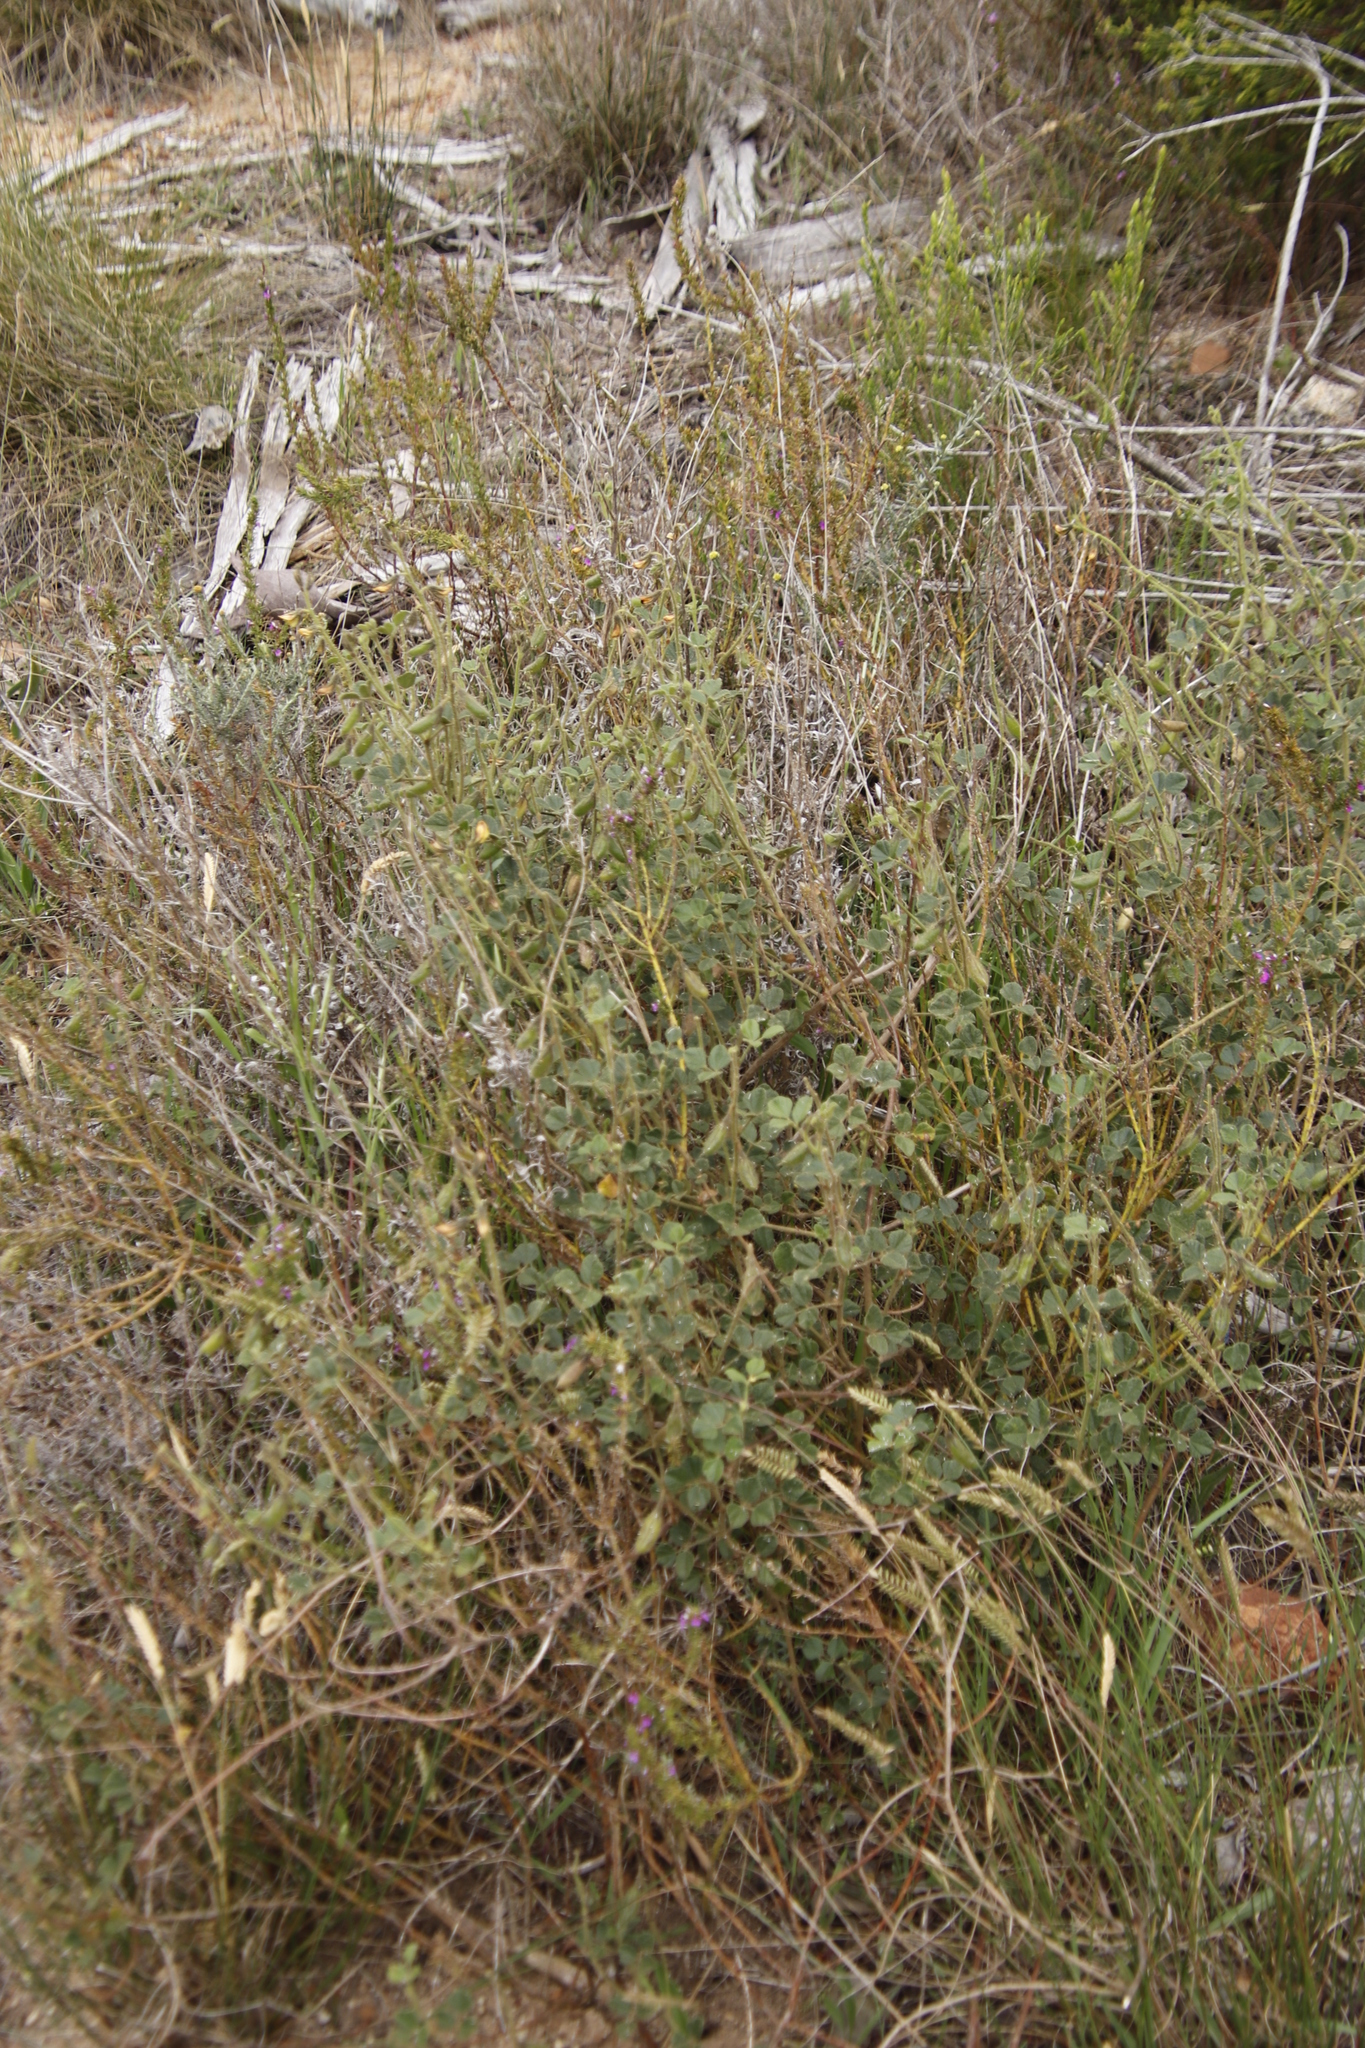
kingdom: Plantae
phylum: Tracheophyta
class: Magnoliopsida
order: Fabales
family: Fabaceae
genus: Bolusafra
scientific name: Bolusafra bituminosa
